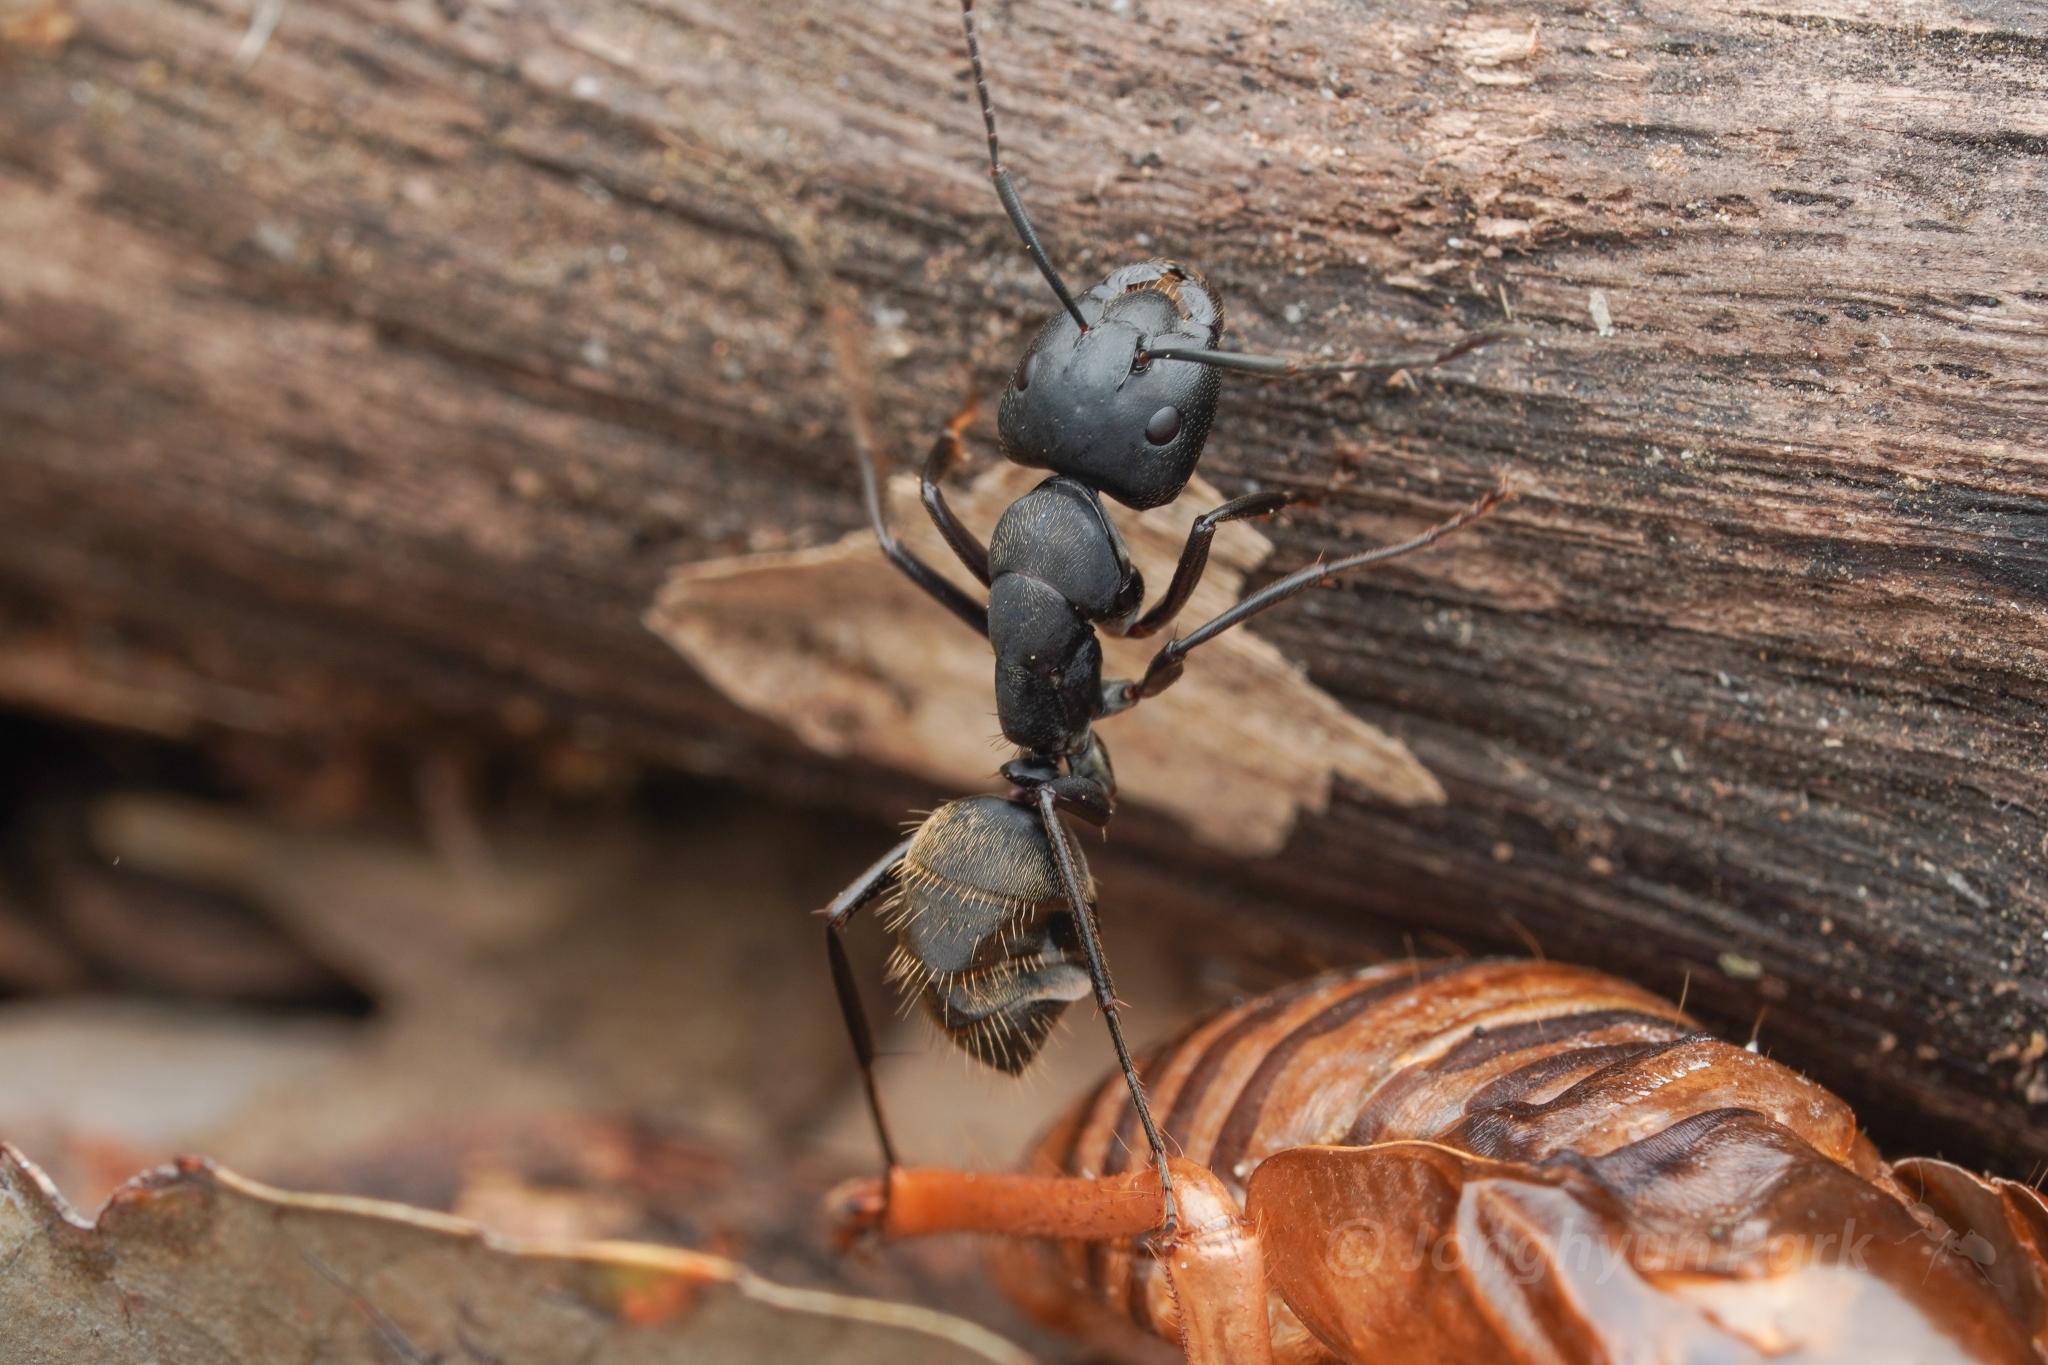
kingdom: Animalia
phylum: Arthropoda
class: Insecta
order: Hymenoptera
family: Formicidae
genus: Camponotus
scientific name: Camponotus japonicus
